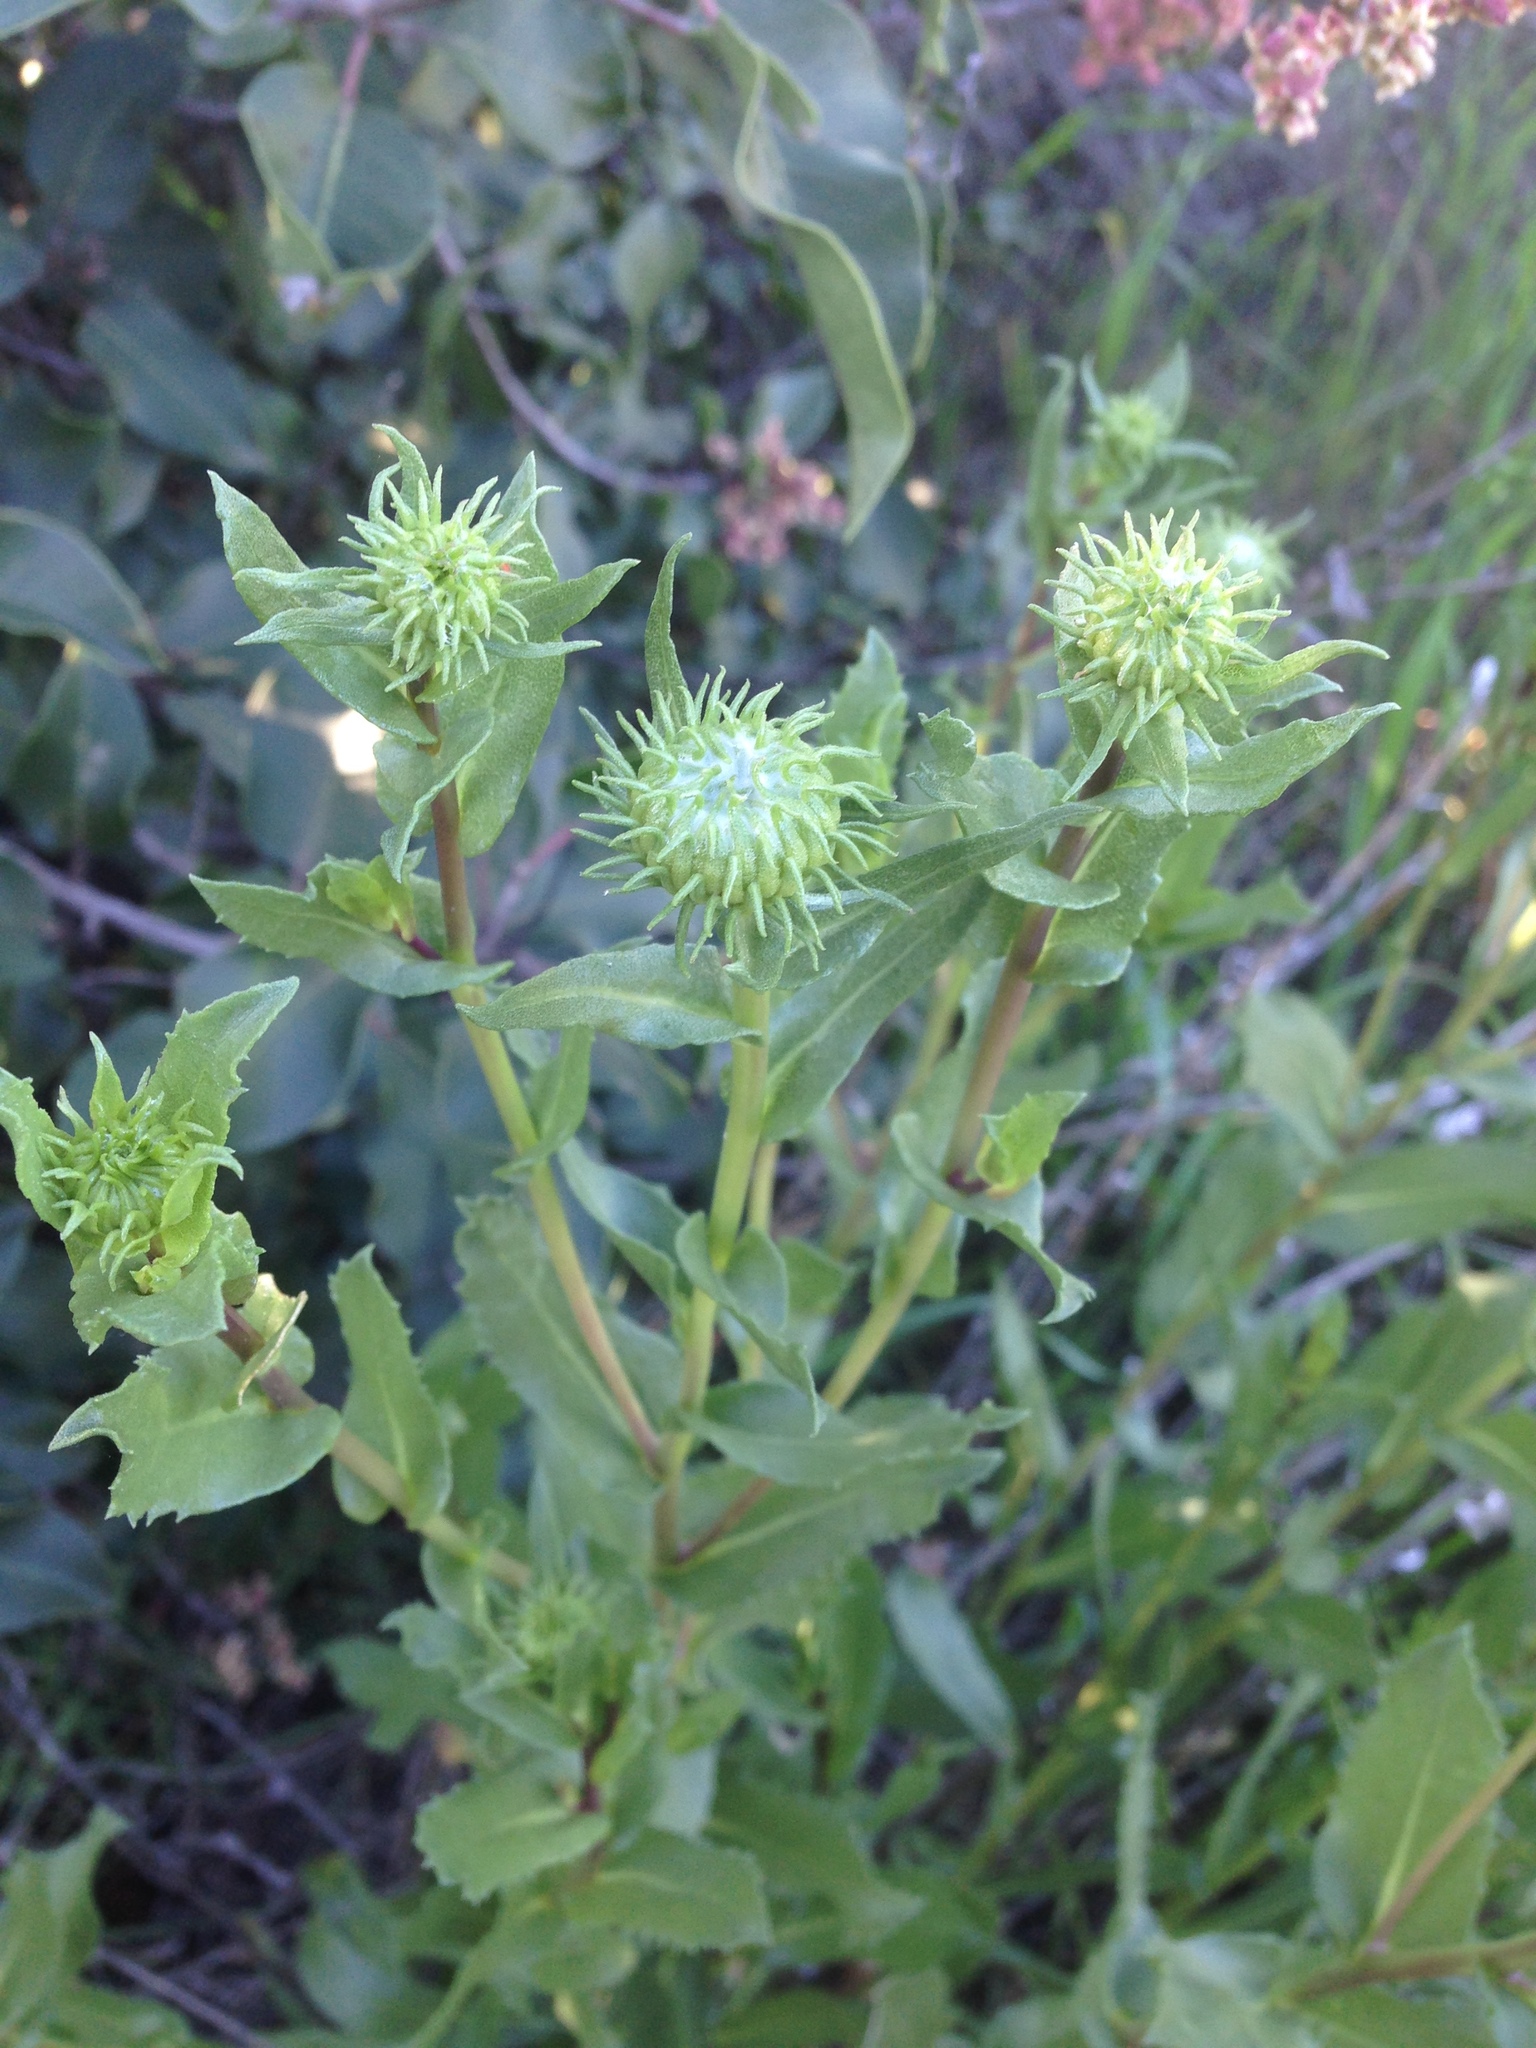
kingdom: Plantae
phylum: Tracheophyta
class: Magnoliopsida
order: Asterales
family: Asteraceae
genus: Grindelia
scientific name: Grindelia hirsutula
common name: Hairy gumweed
